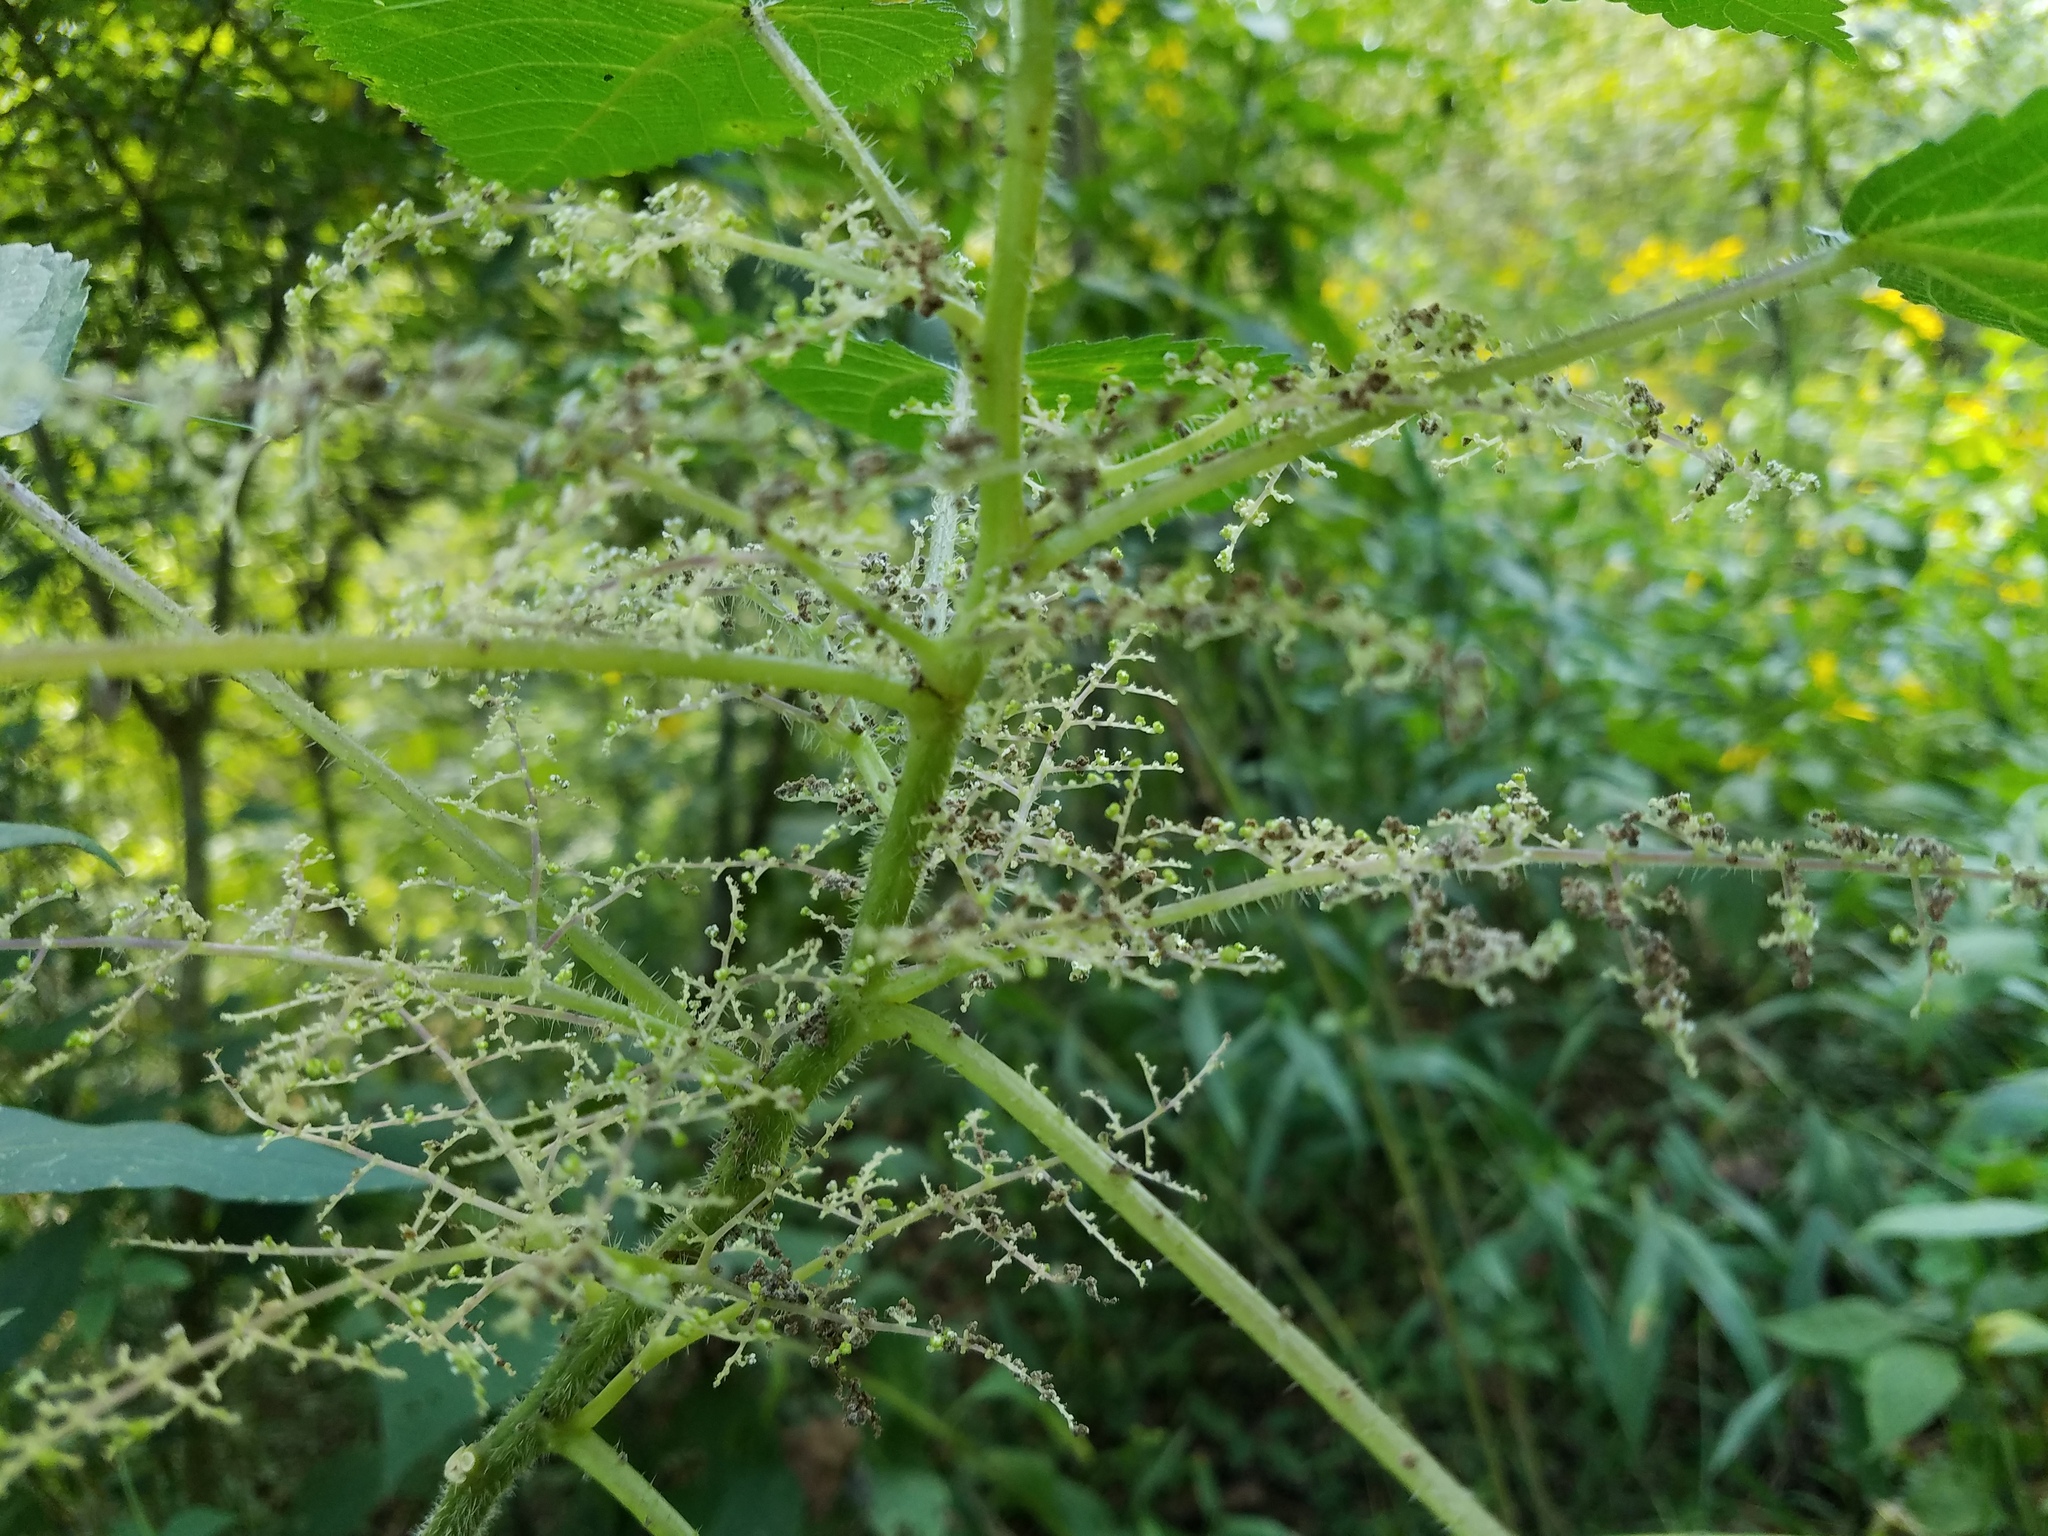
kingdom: Plantae
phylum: Tracheophyta
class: Magnoliopsida
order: Rosales
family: Urticaceae
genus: Laportea
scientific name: Laportea canadensis
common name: Canada nettle
